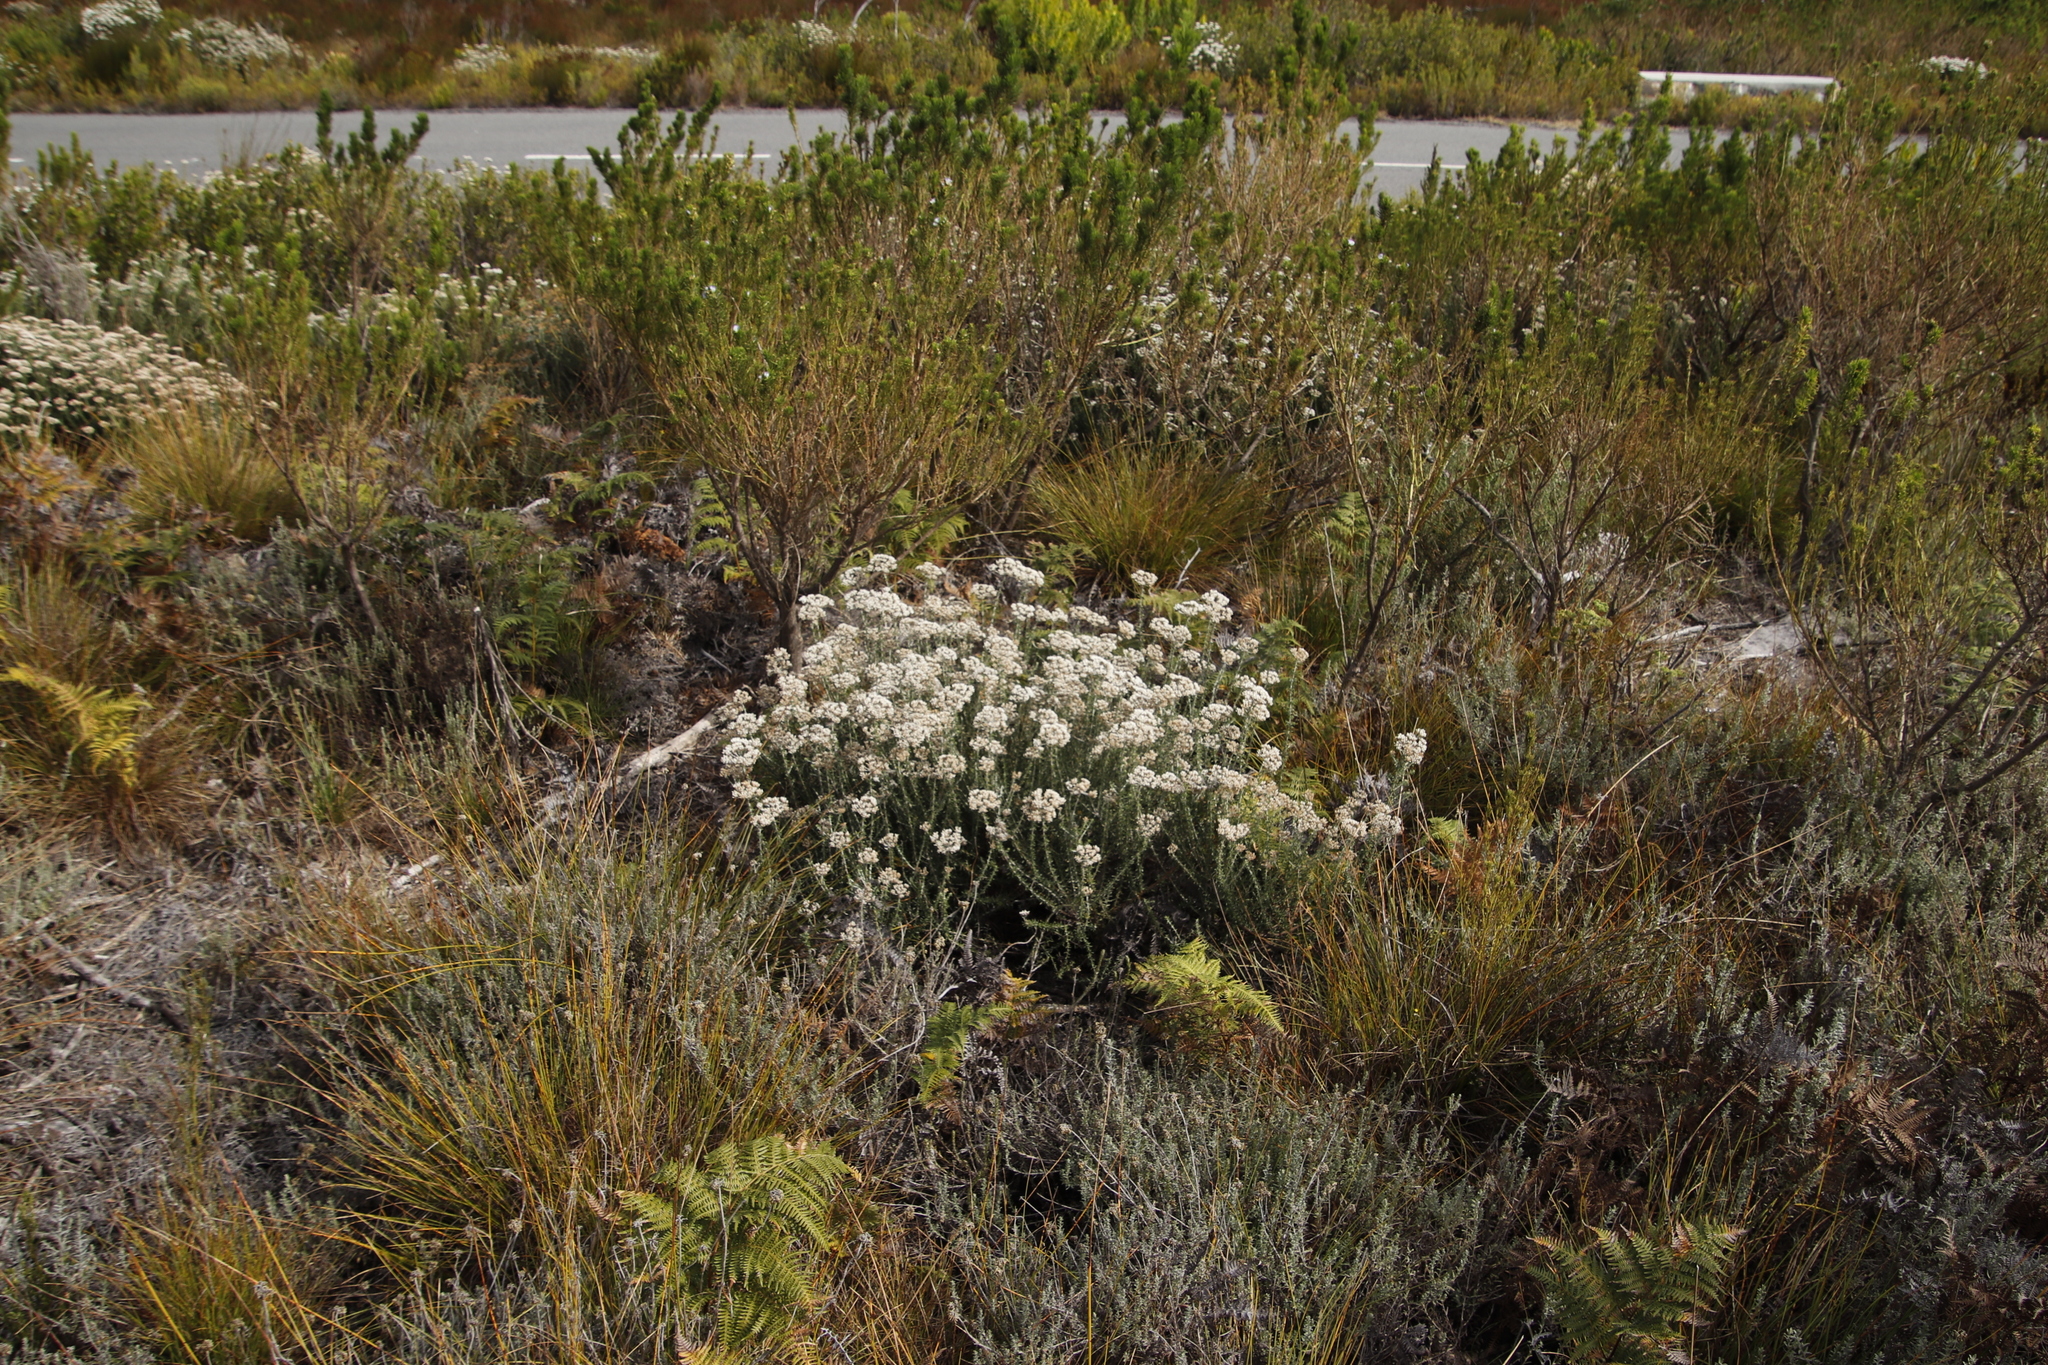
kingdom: Plantae
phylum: Tracheophyta
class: Magnoliopsida
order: Asterales
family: Asteraceae
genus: Metalasia
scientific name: Metalasia densa
